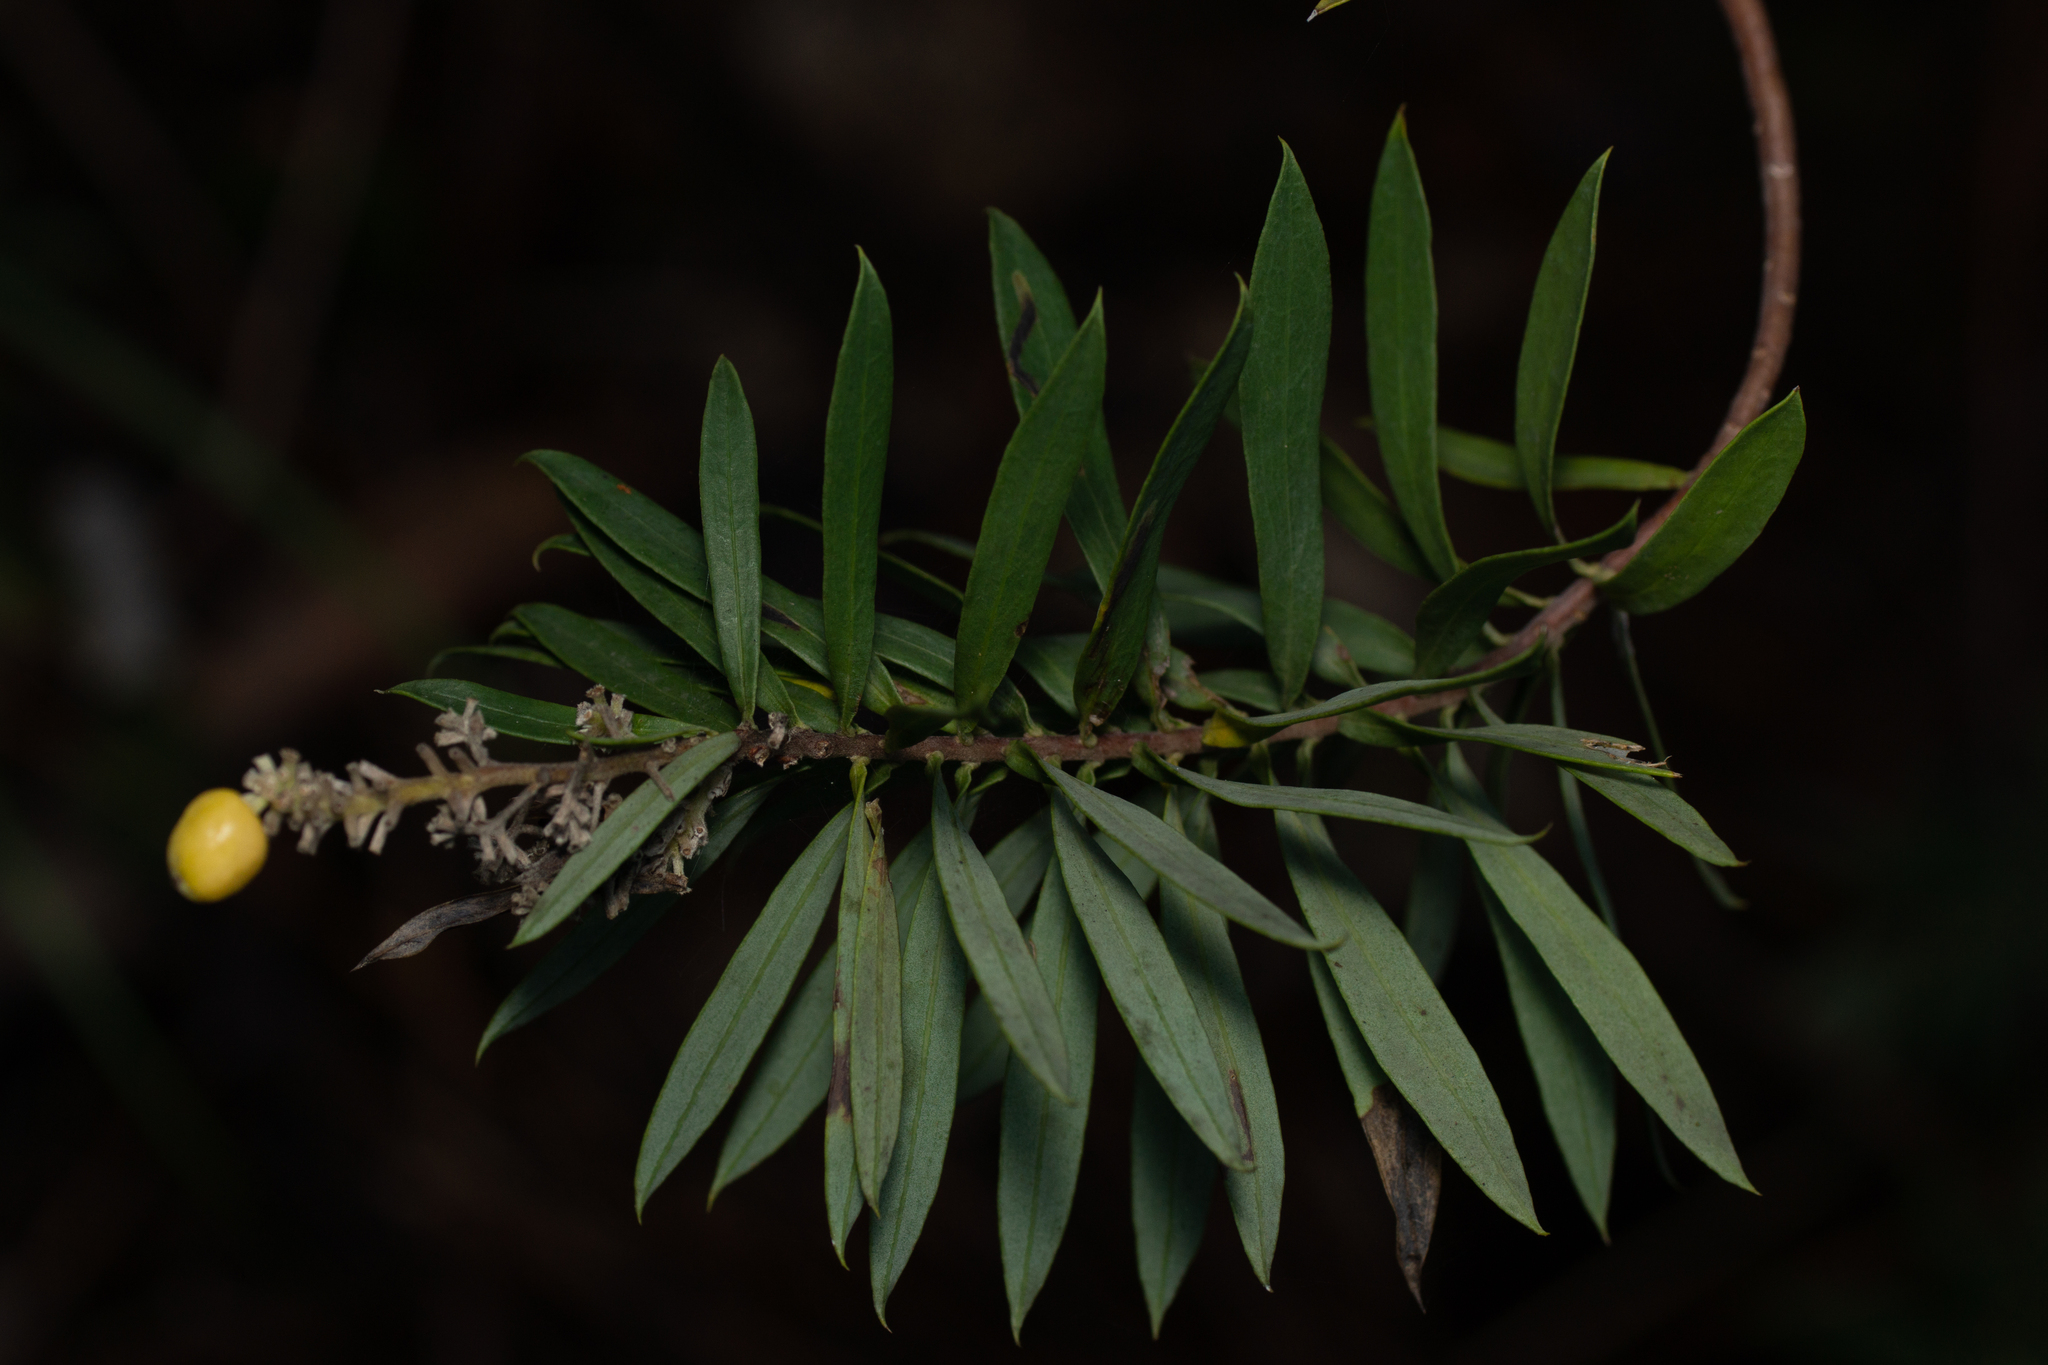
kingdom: Plantae
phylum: Tracheophyta
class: Magnoliopsida
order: Malvales
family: Thymelaeaceae
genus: Daphne
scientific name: Daphne gnidium
